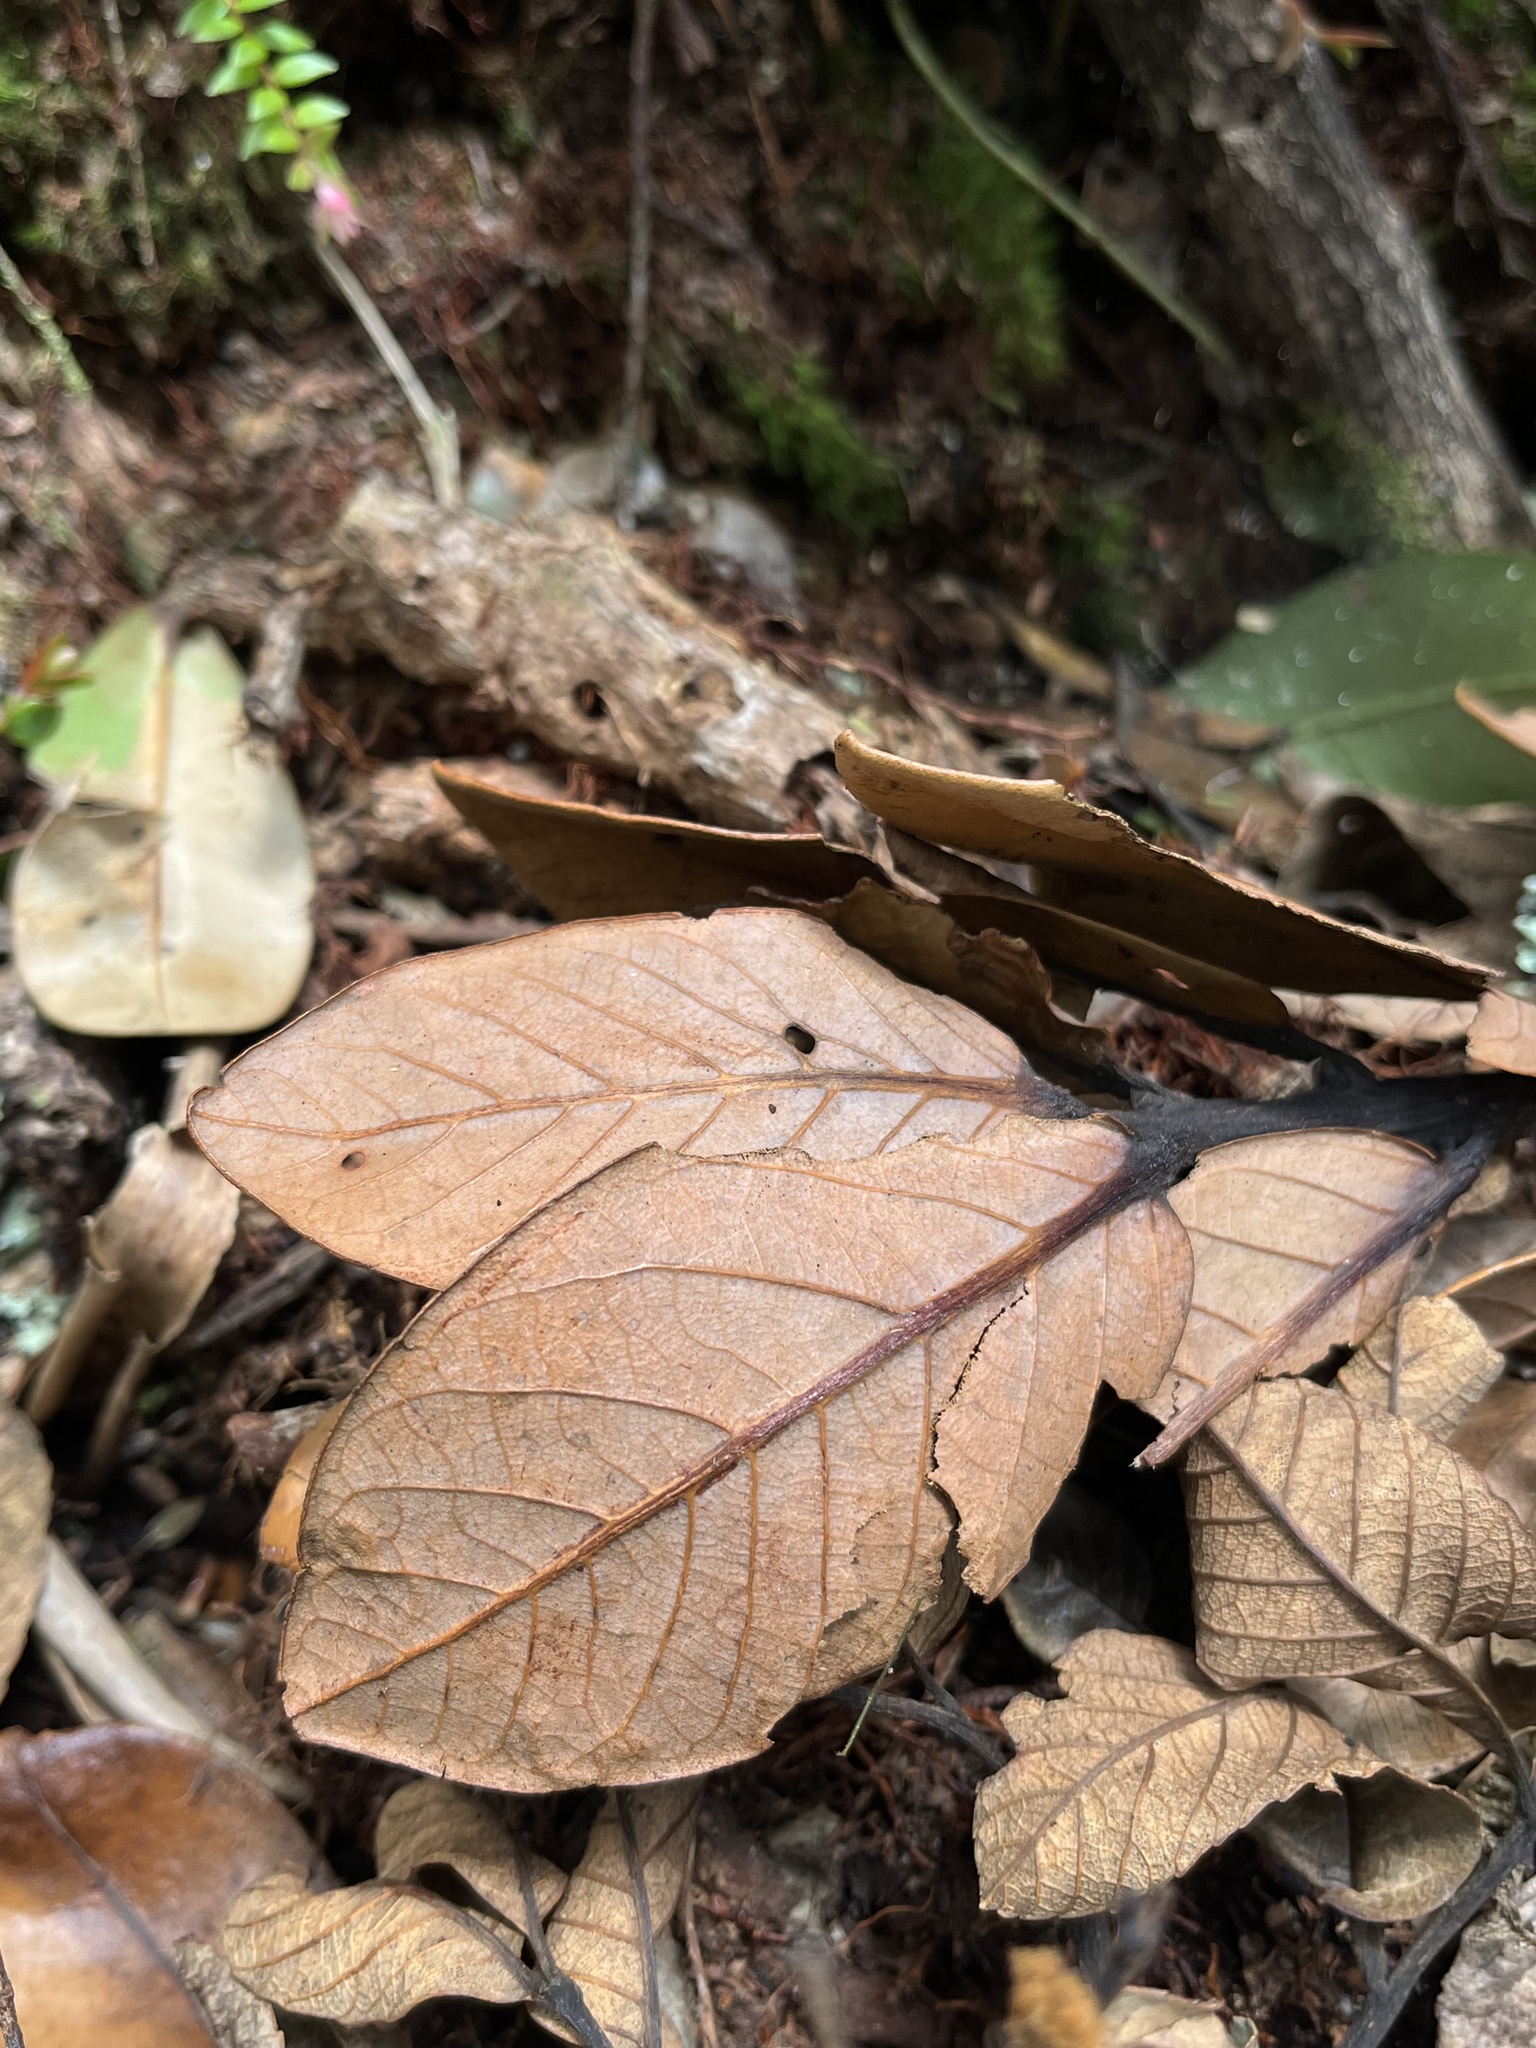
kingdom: Plantae
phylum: Tracheophyta
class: Magnoliopsida
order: Laurales
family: Lauraceae
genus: Persea
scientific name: Persea mutisii
